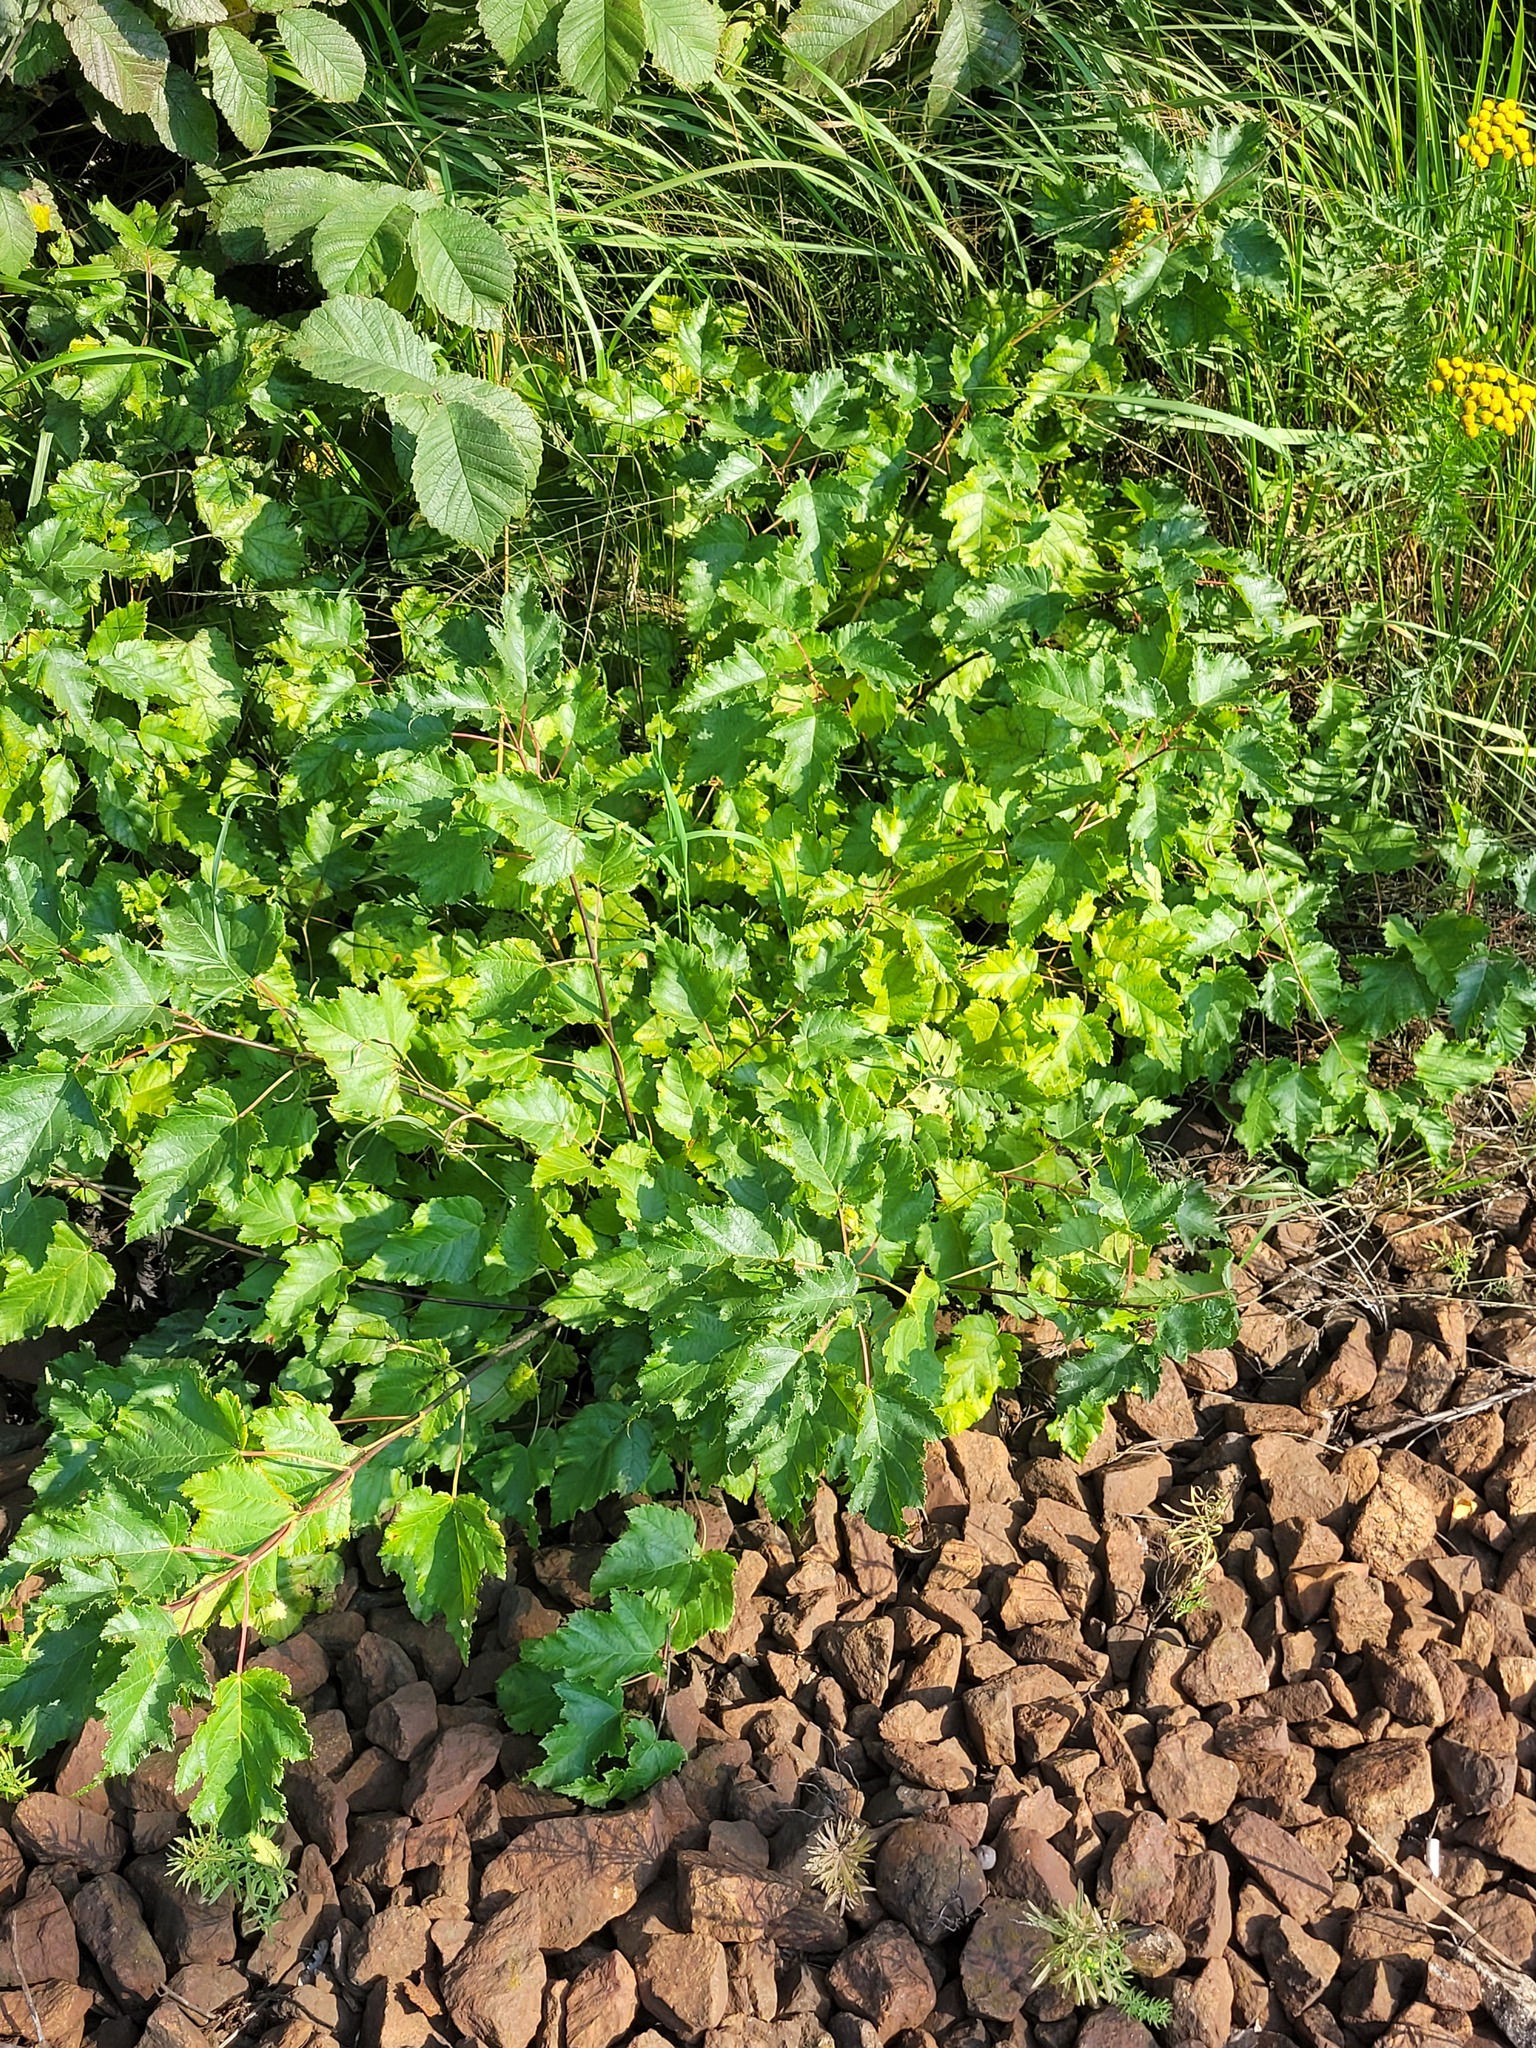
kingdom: Plantae
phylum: Tracheophyta
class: Magnoliopsida
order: Sapindales
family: Sapindaceae
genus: Acer
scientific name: Acer tataricum
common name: Tartar maple
